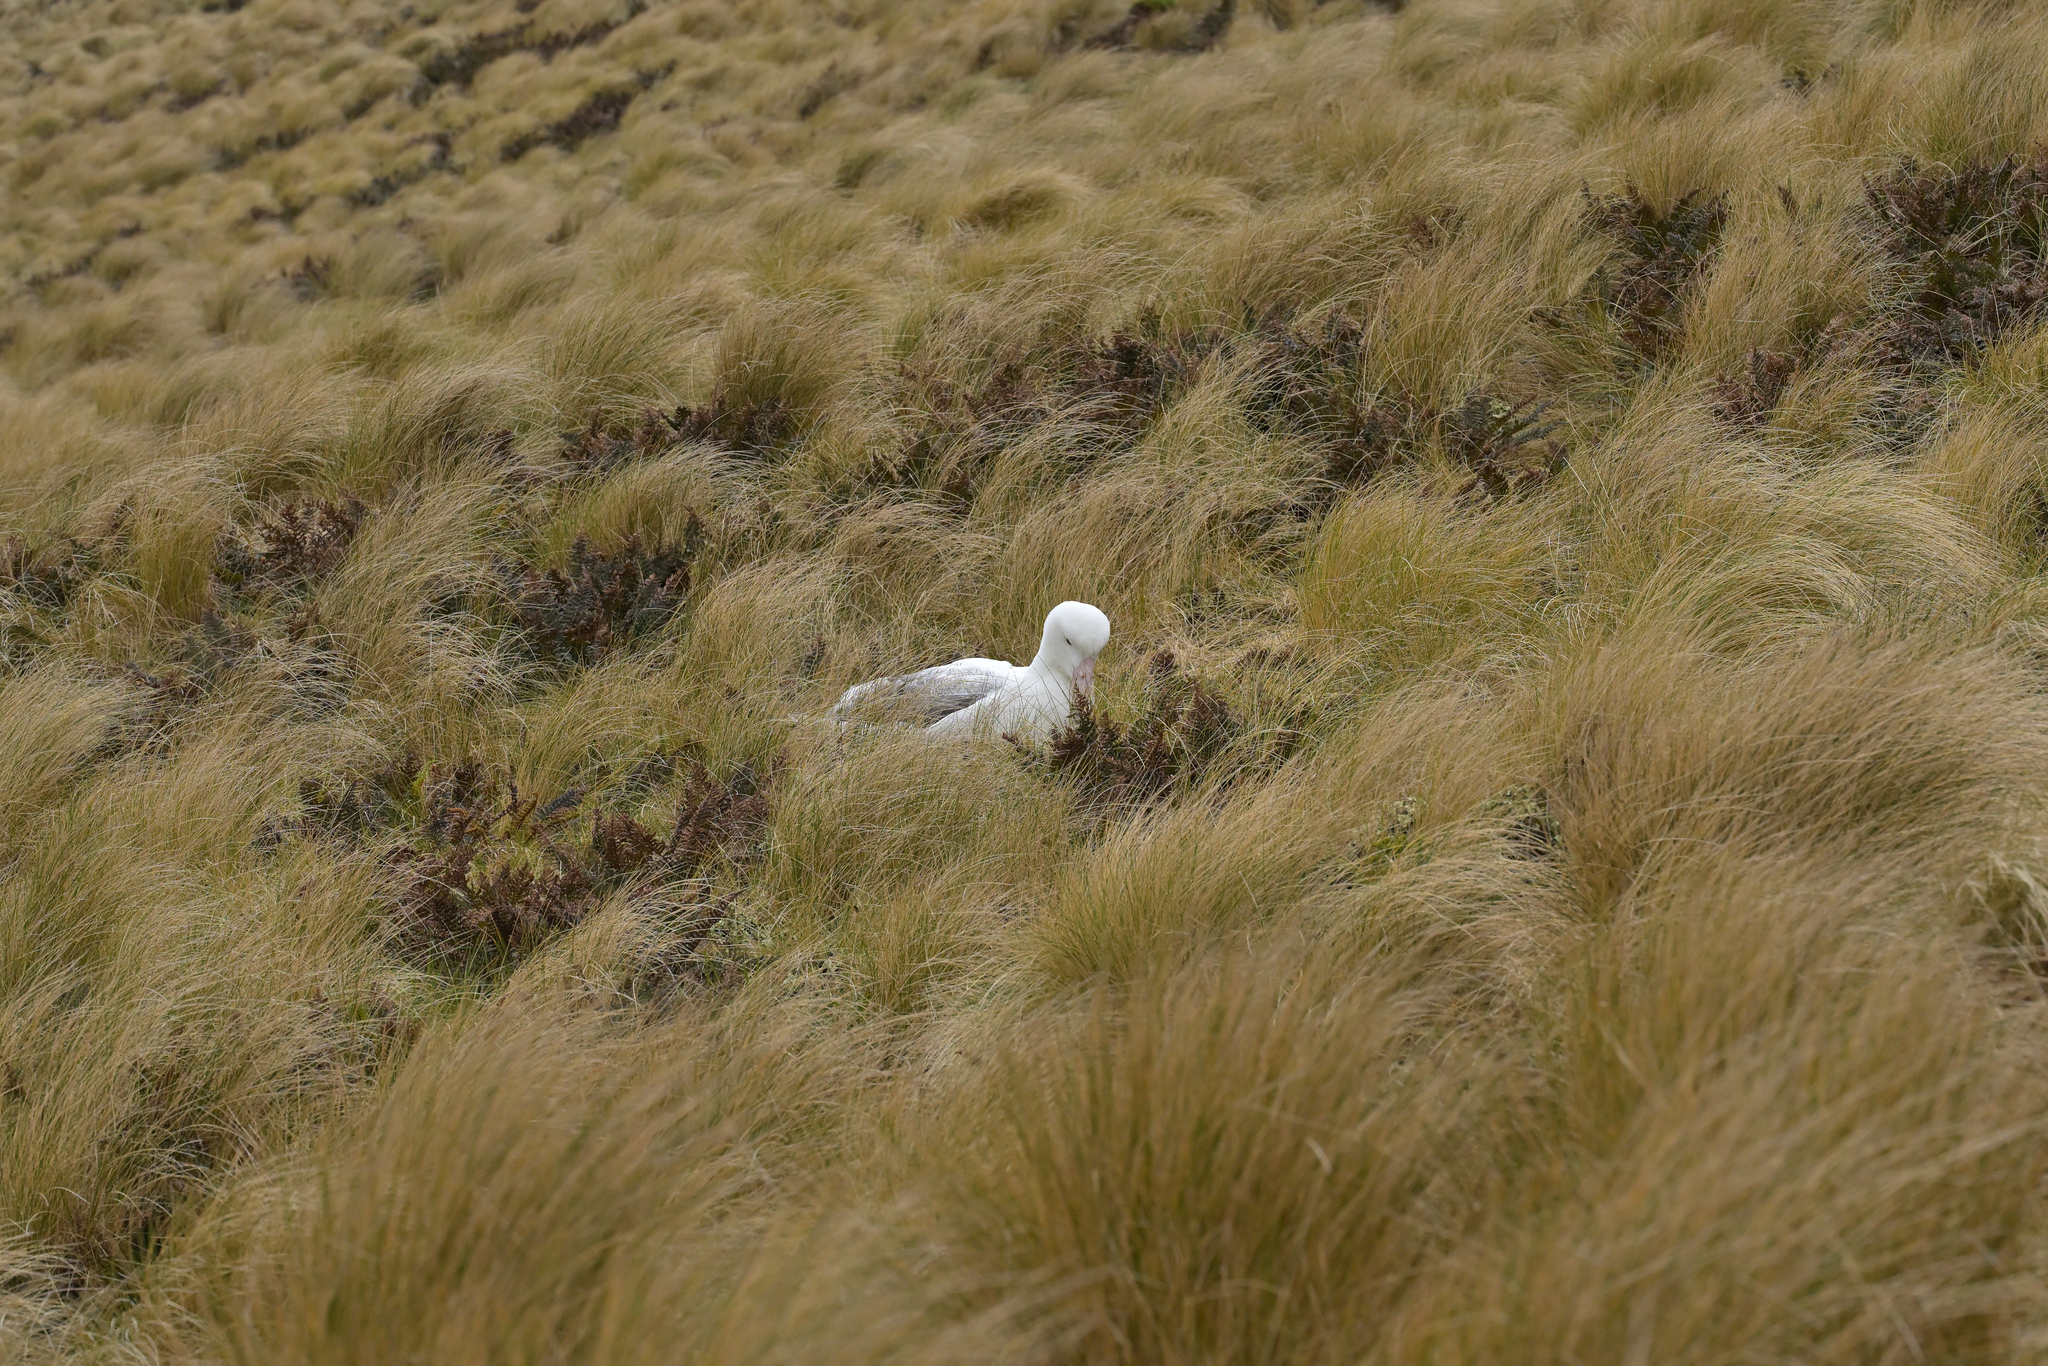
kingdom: Animalia
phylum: Chordata
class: Aves
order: Procellariiformes
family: Diomedeidae
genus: Diomedea
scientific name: Diomedea epomophora
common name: Southern royal albatross
